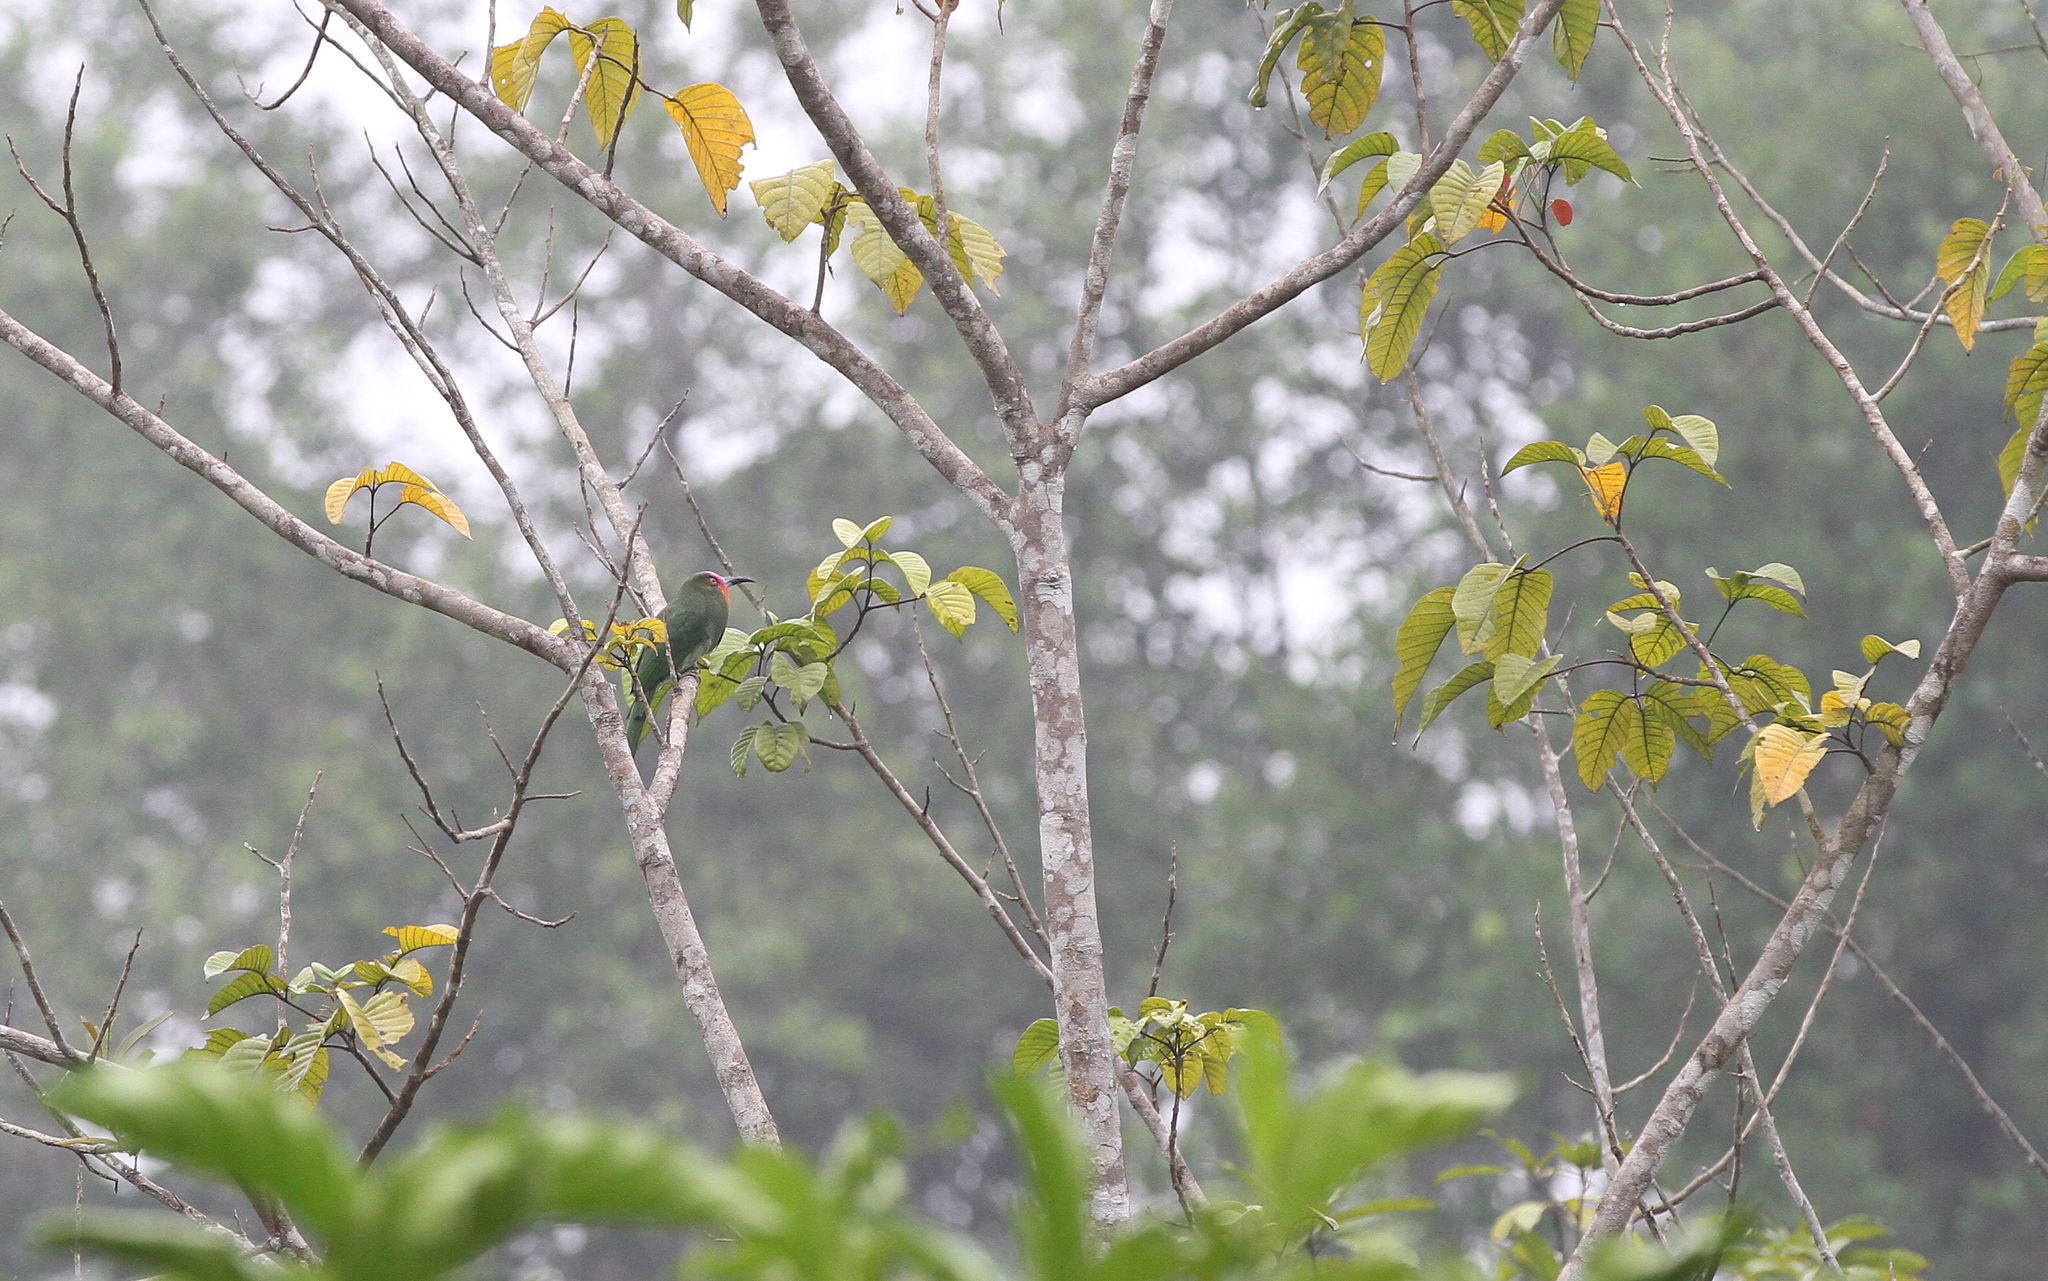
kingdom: Animalia
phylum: Chordata
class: Aves
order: Coraciiformes
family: Meropidae
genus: Nyctyornis
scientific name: Nyctyornis amictus
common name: Red-bearded bee-eater
